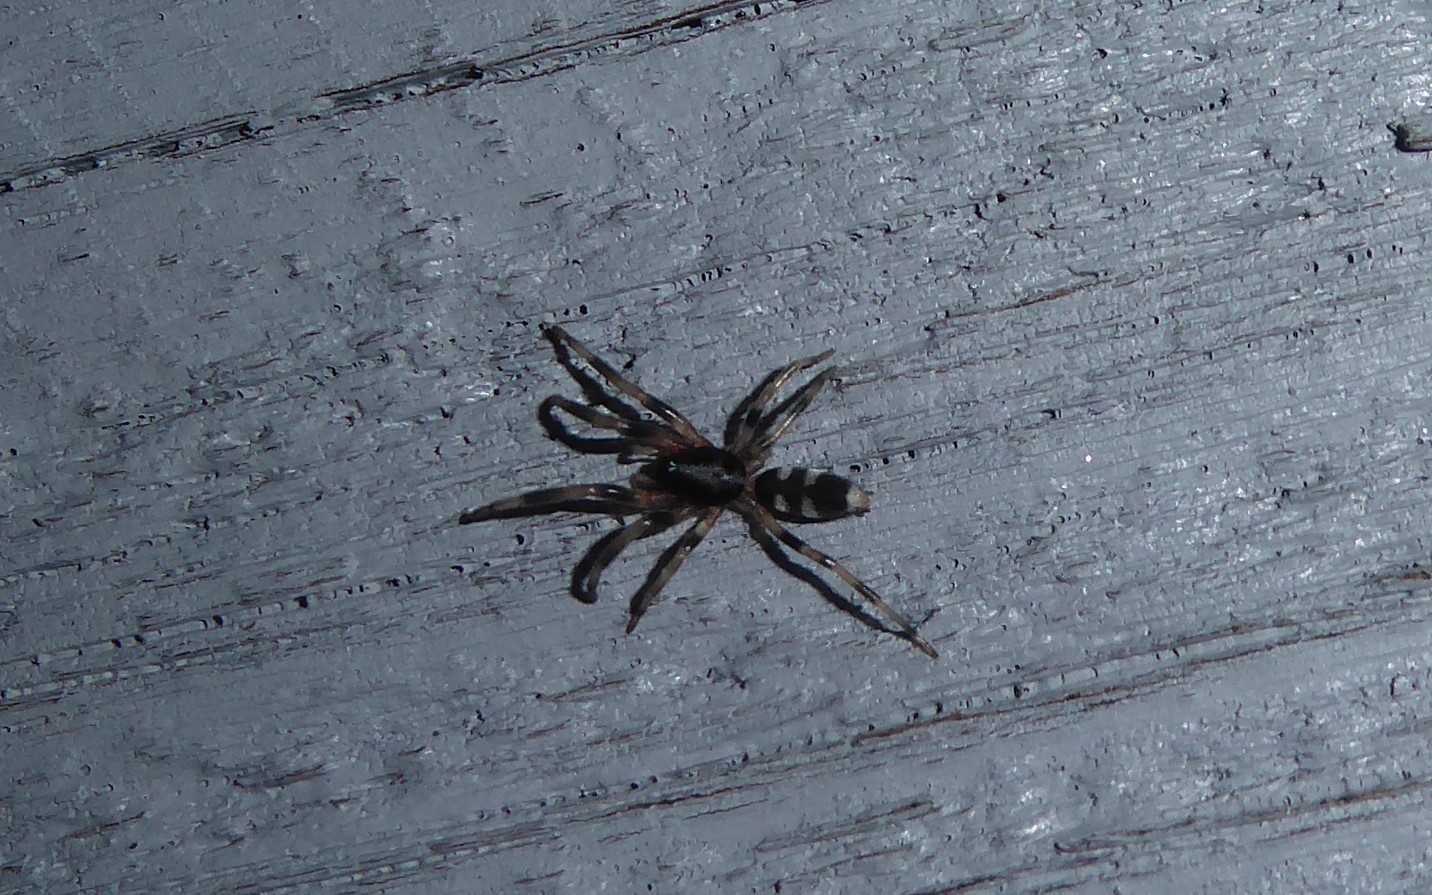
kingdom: Animalia
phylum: Arthropoda
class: Arachnida
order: Araneae
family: Lamponidae
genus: Lampona
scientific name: Lampona cylindrata
